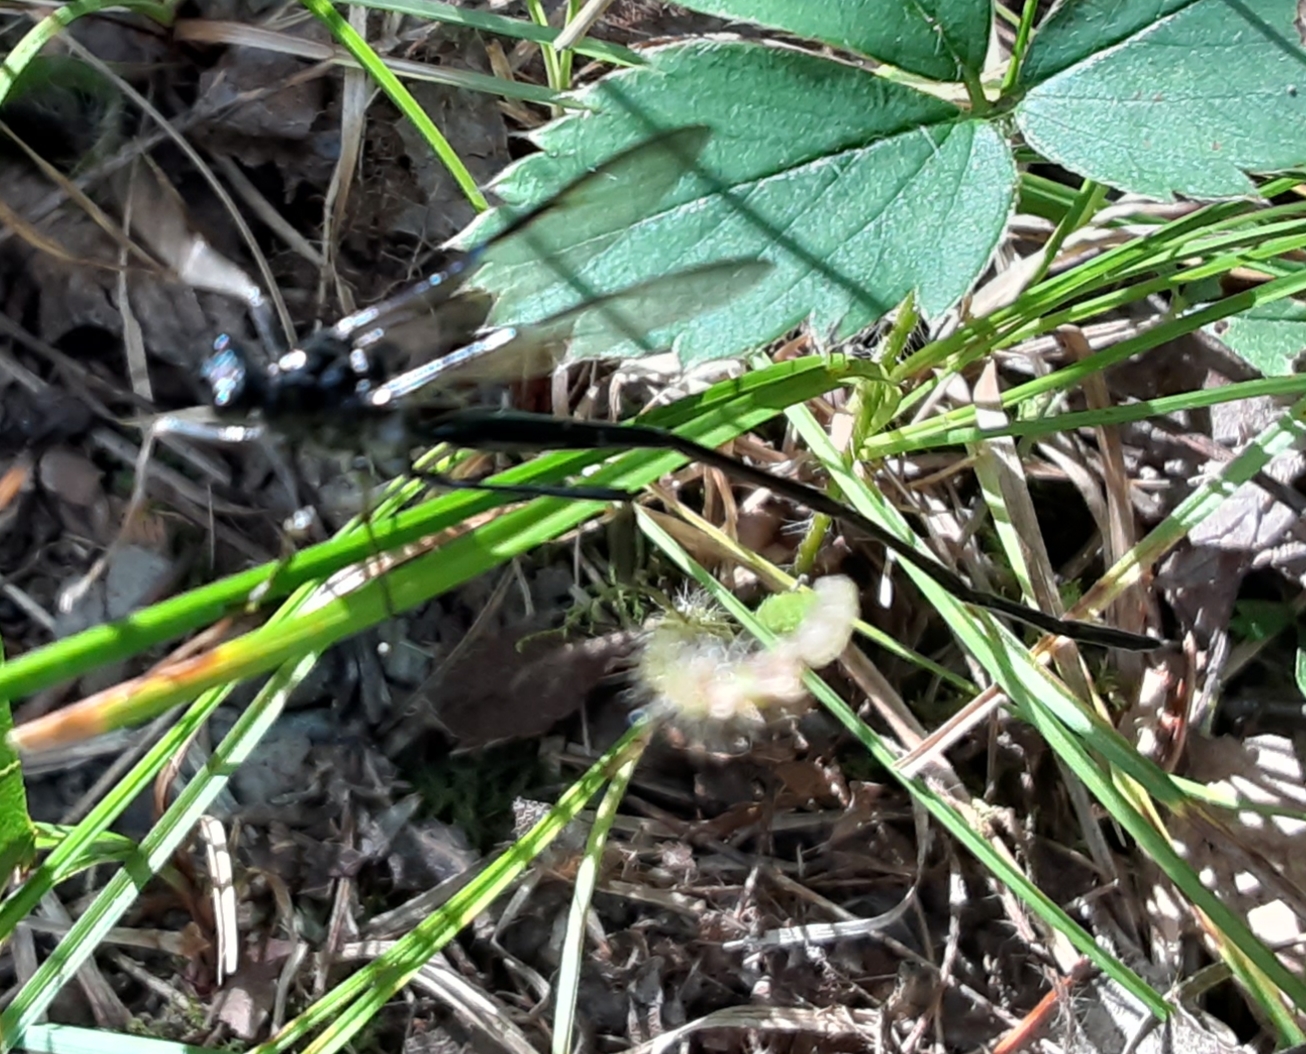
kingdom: Animalia
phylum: Arthropoda
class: Insecta
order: Hymenoptera
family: Pelecinidae
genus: Pelecinus
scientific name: Pelecinus polyturator
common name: American pelecinid wasp
